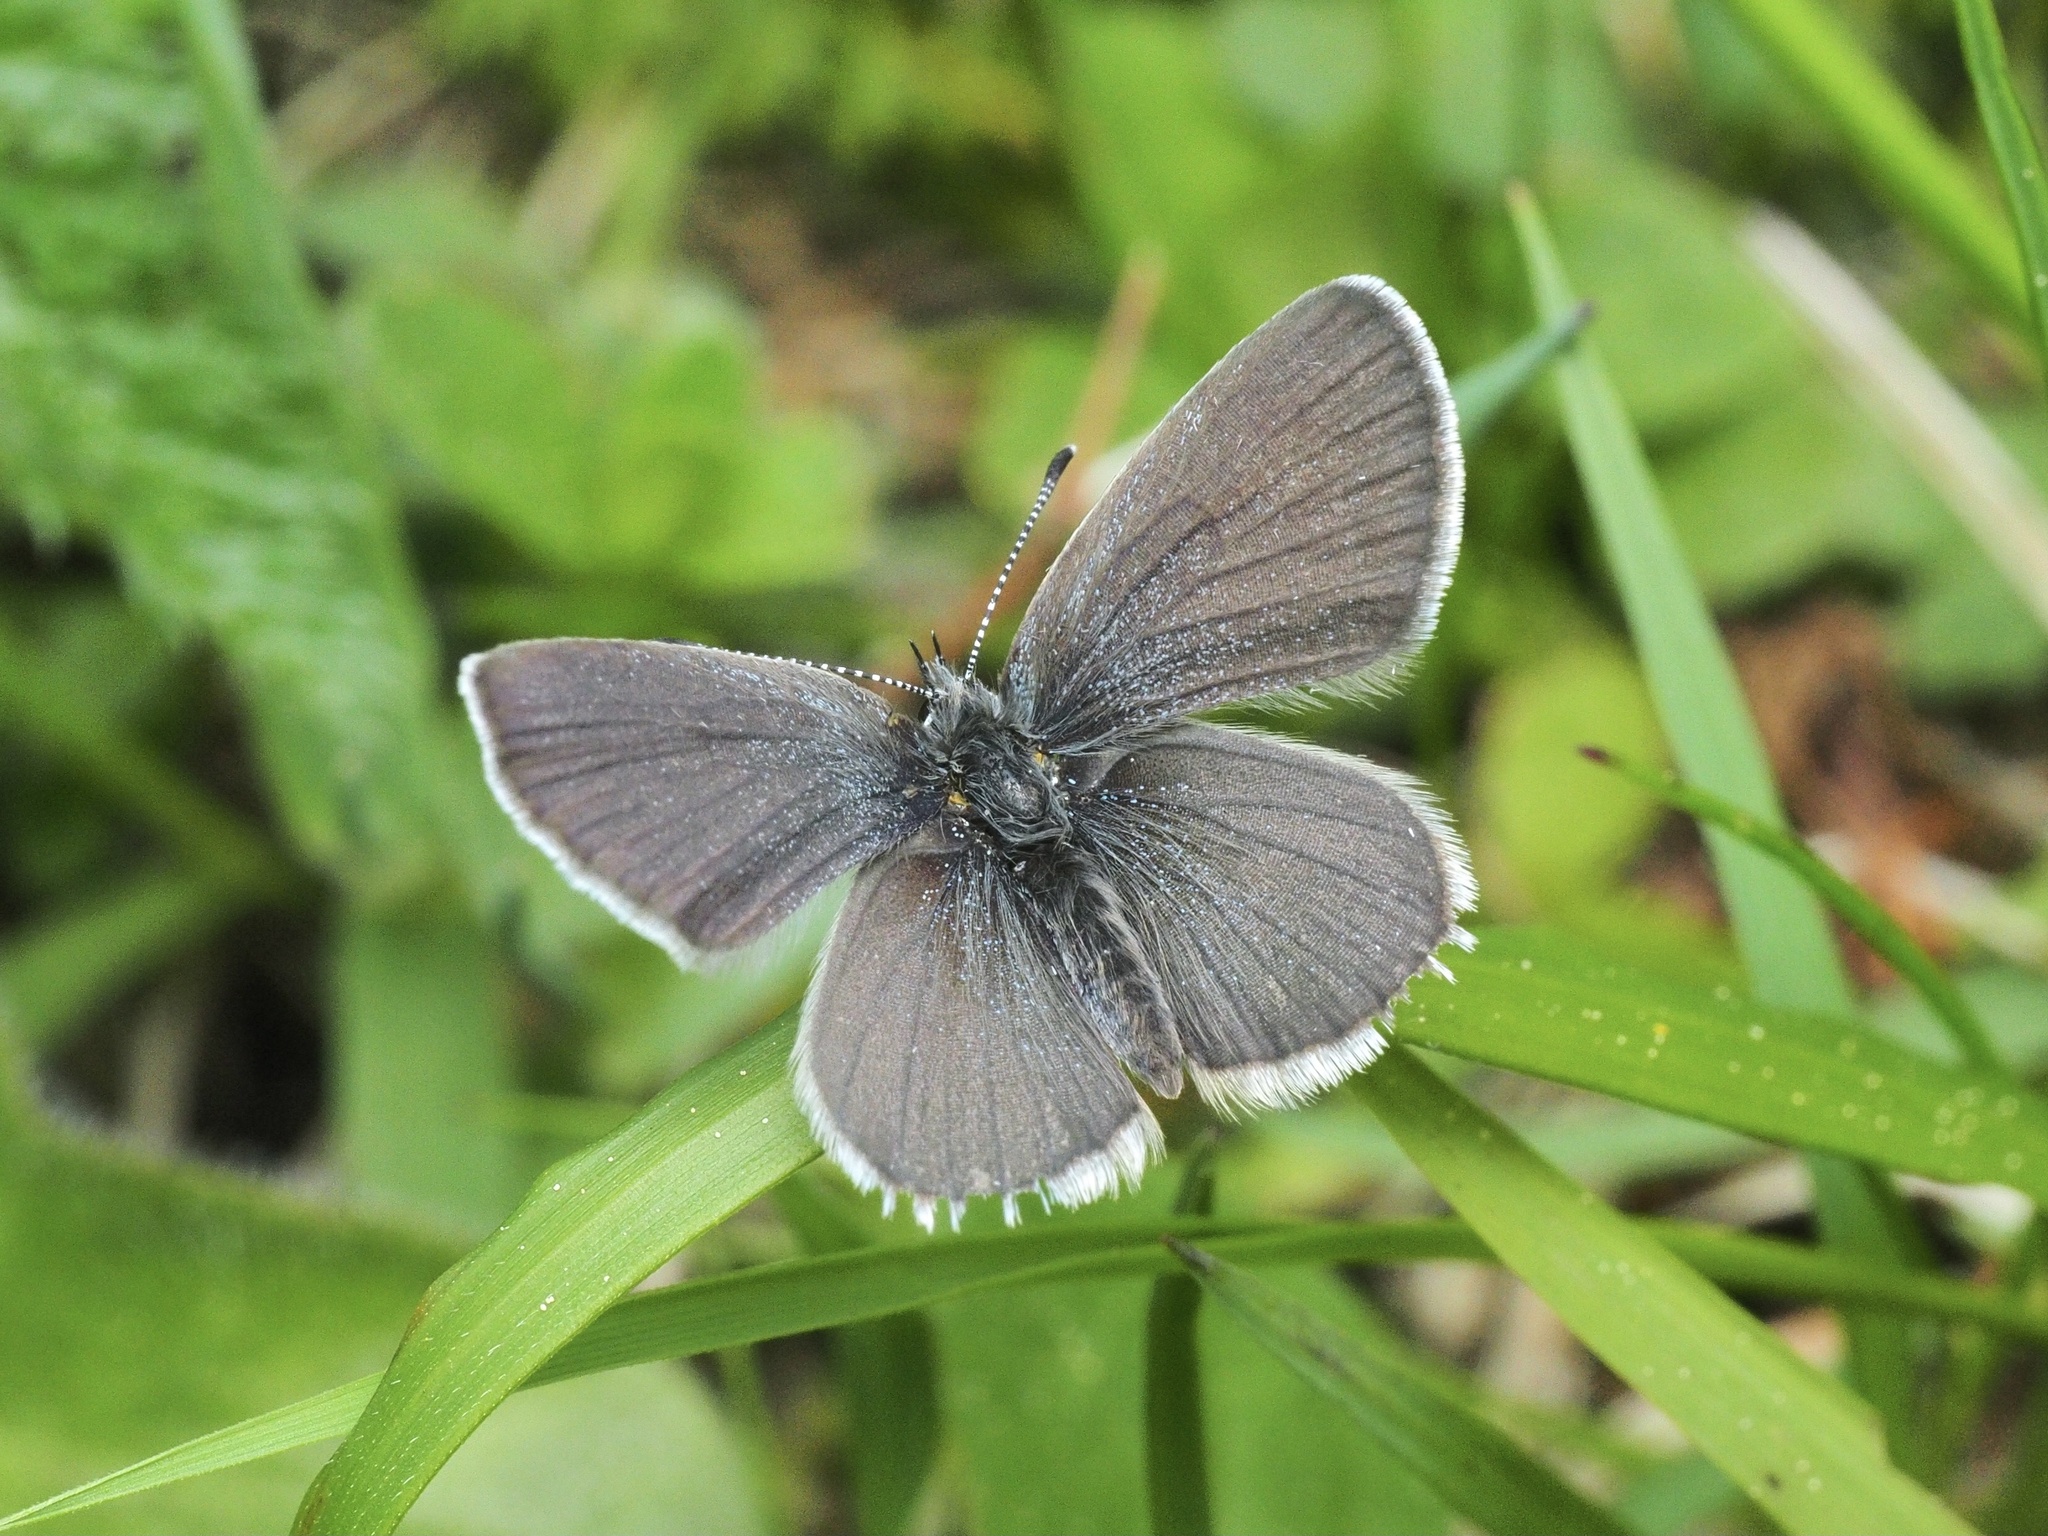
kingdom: Animalia
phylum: Arthropoda
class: Insecta
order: Lepidoptera
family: Lycaenidae
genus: Cupido
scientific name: Cupido minimus
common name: Small blue
